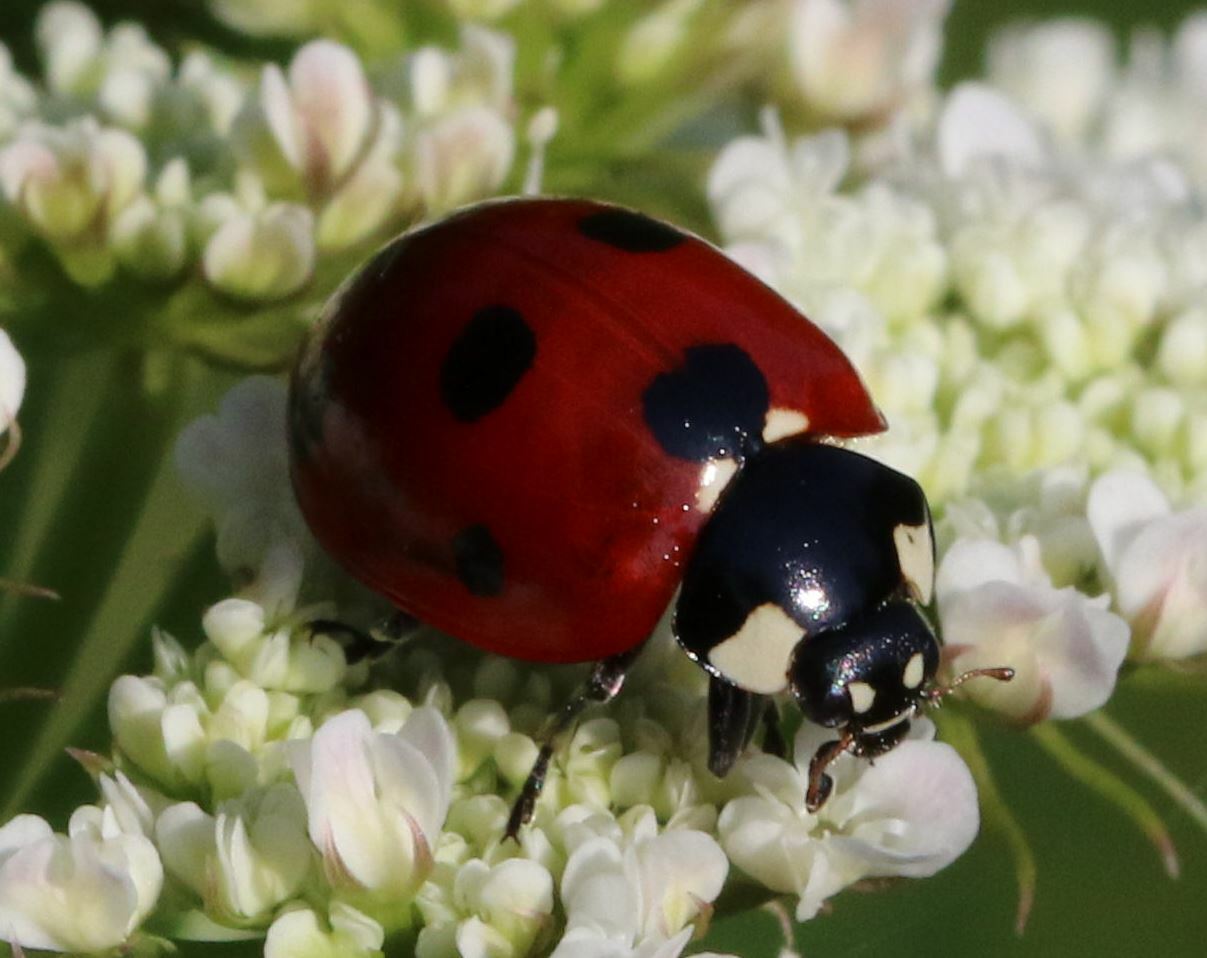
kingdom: Animalia
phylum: Arthropoda
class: Insecta
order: Coleoptera
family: Coccinellidae
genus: Coccinella
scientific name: Coccinella septempunctata
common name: Sevenspotted lady beetle
